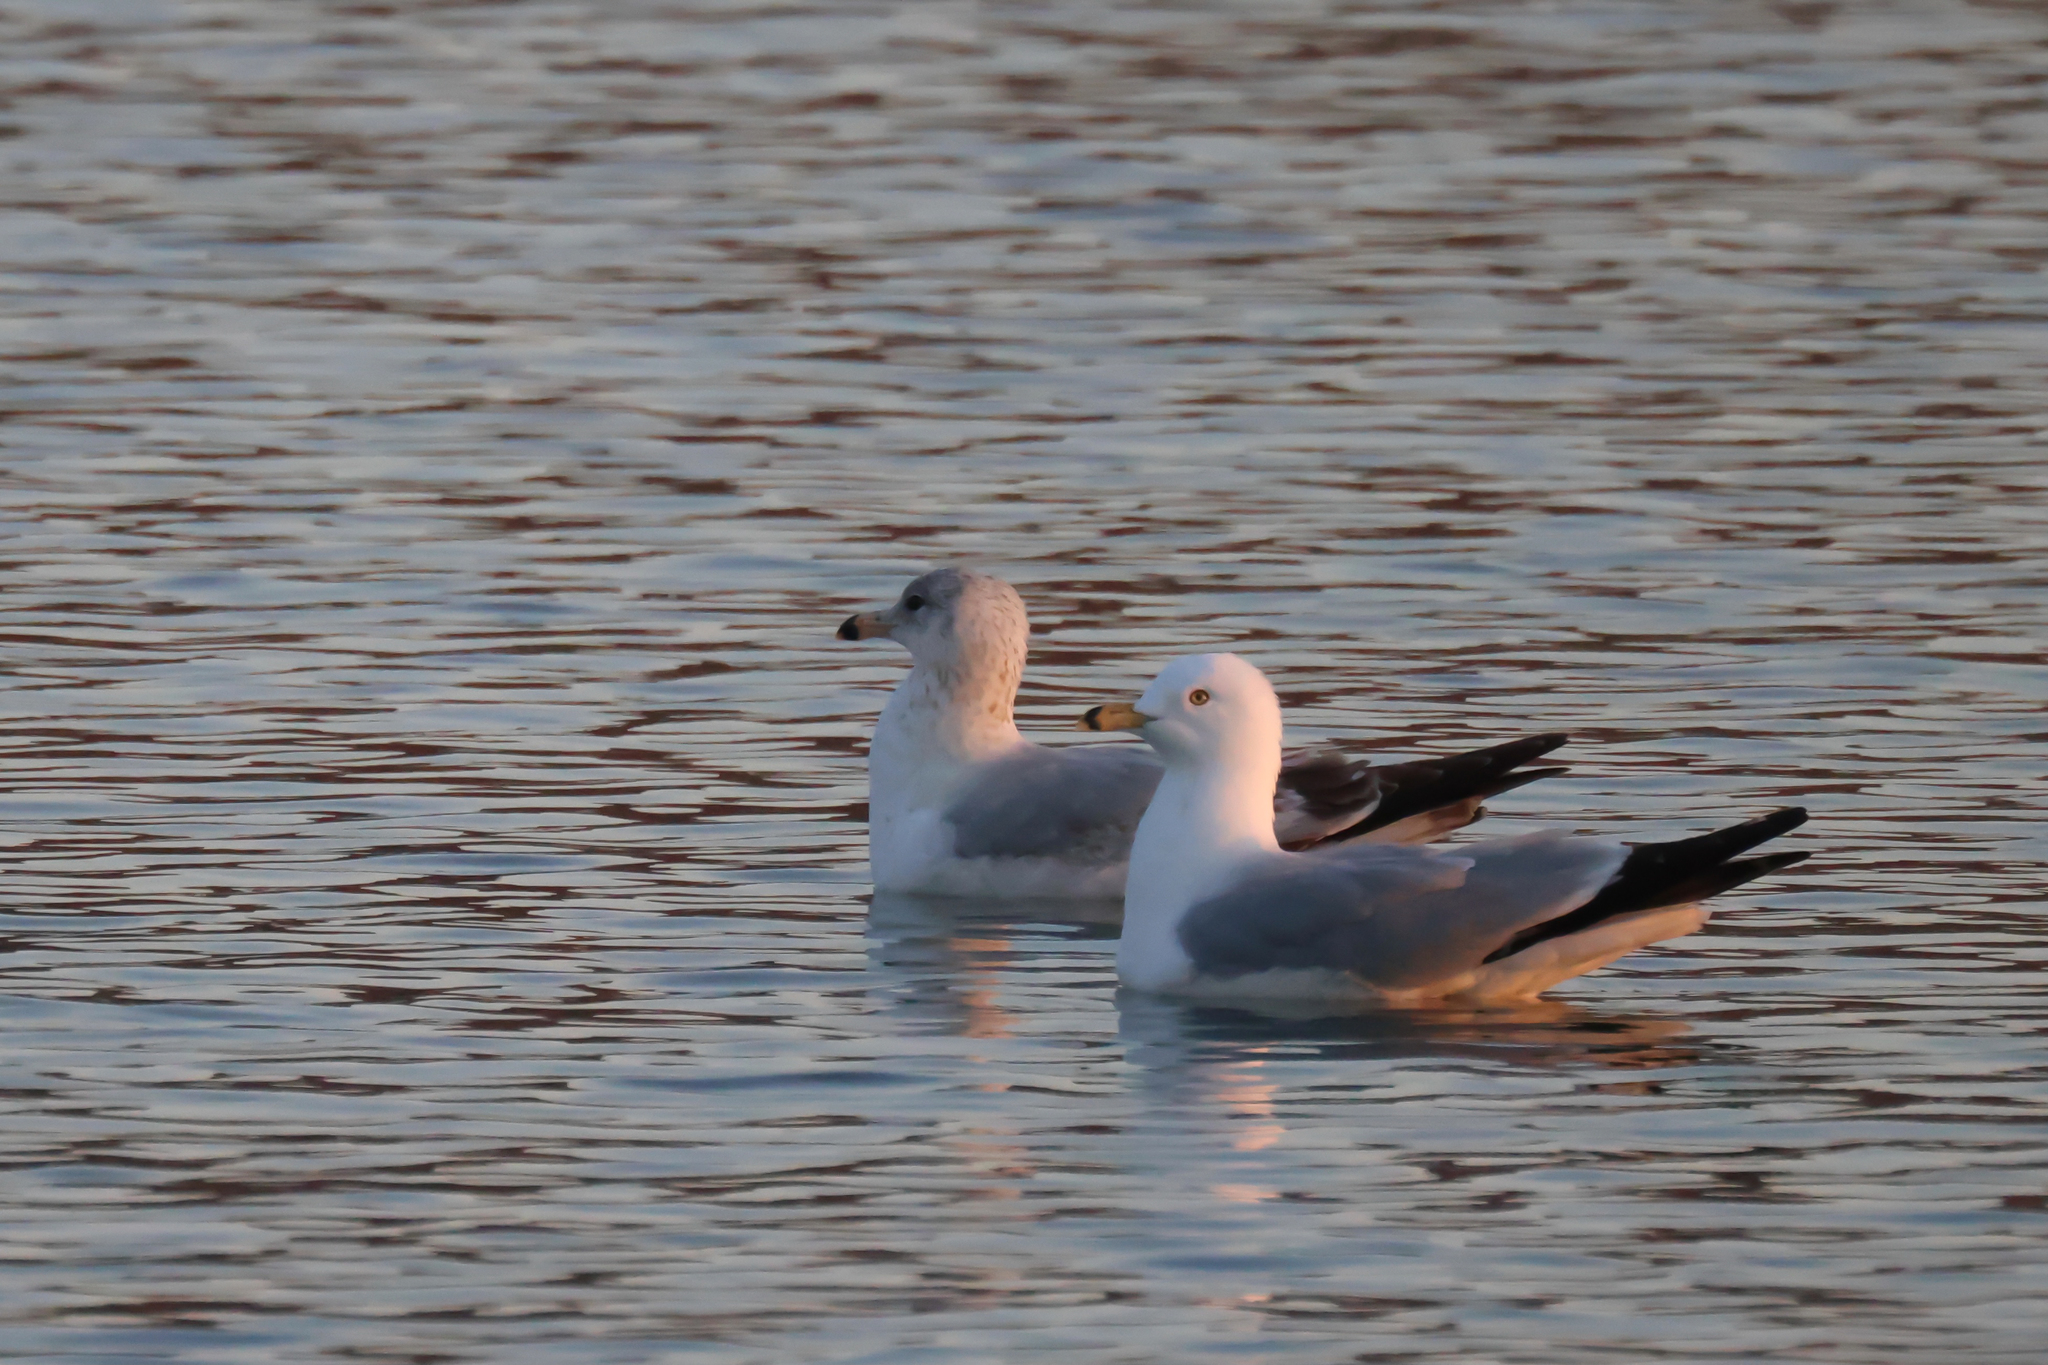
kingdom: Animalia
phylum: Chordata
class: Aves
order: Charadriiformes
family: Laridae
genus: Larus
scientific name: Larus delawarensis
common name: Ring-billed gull
